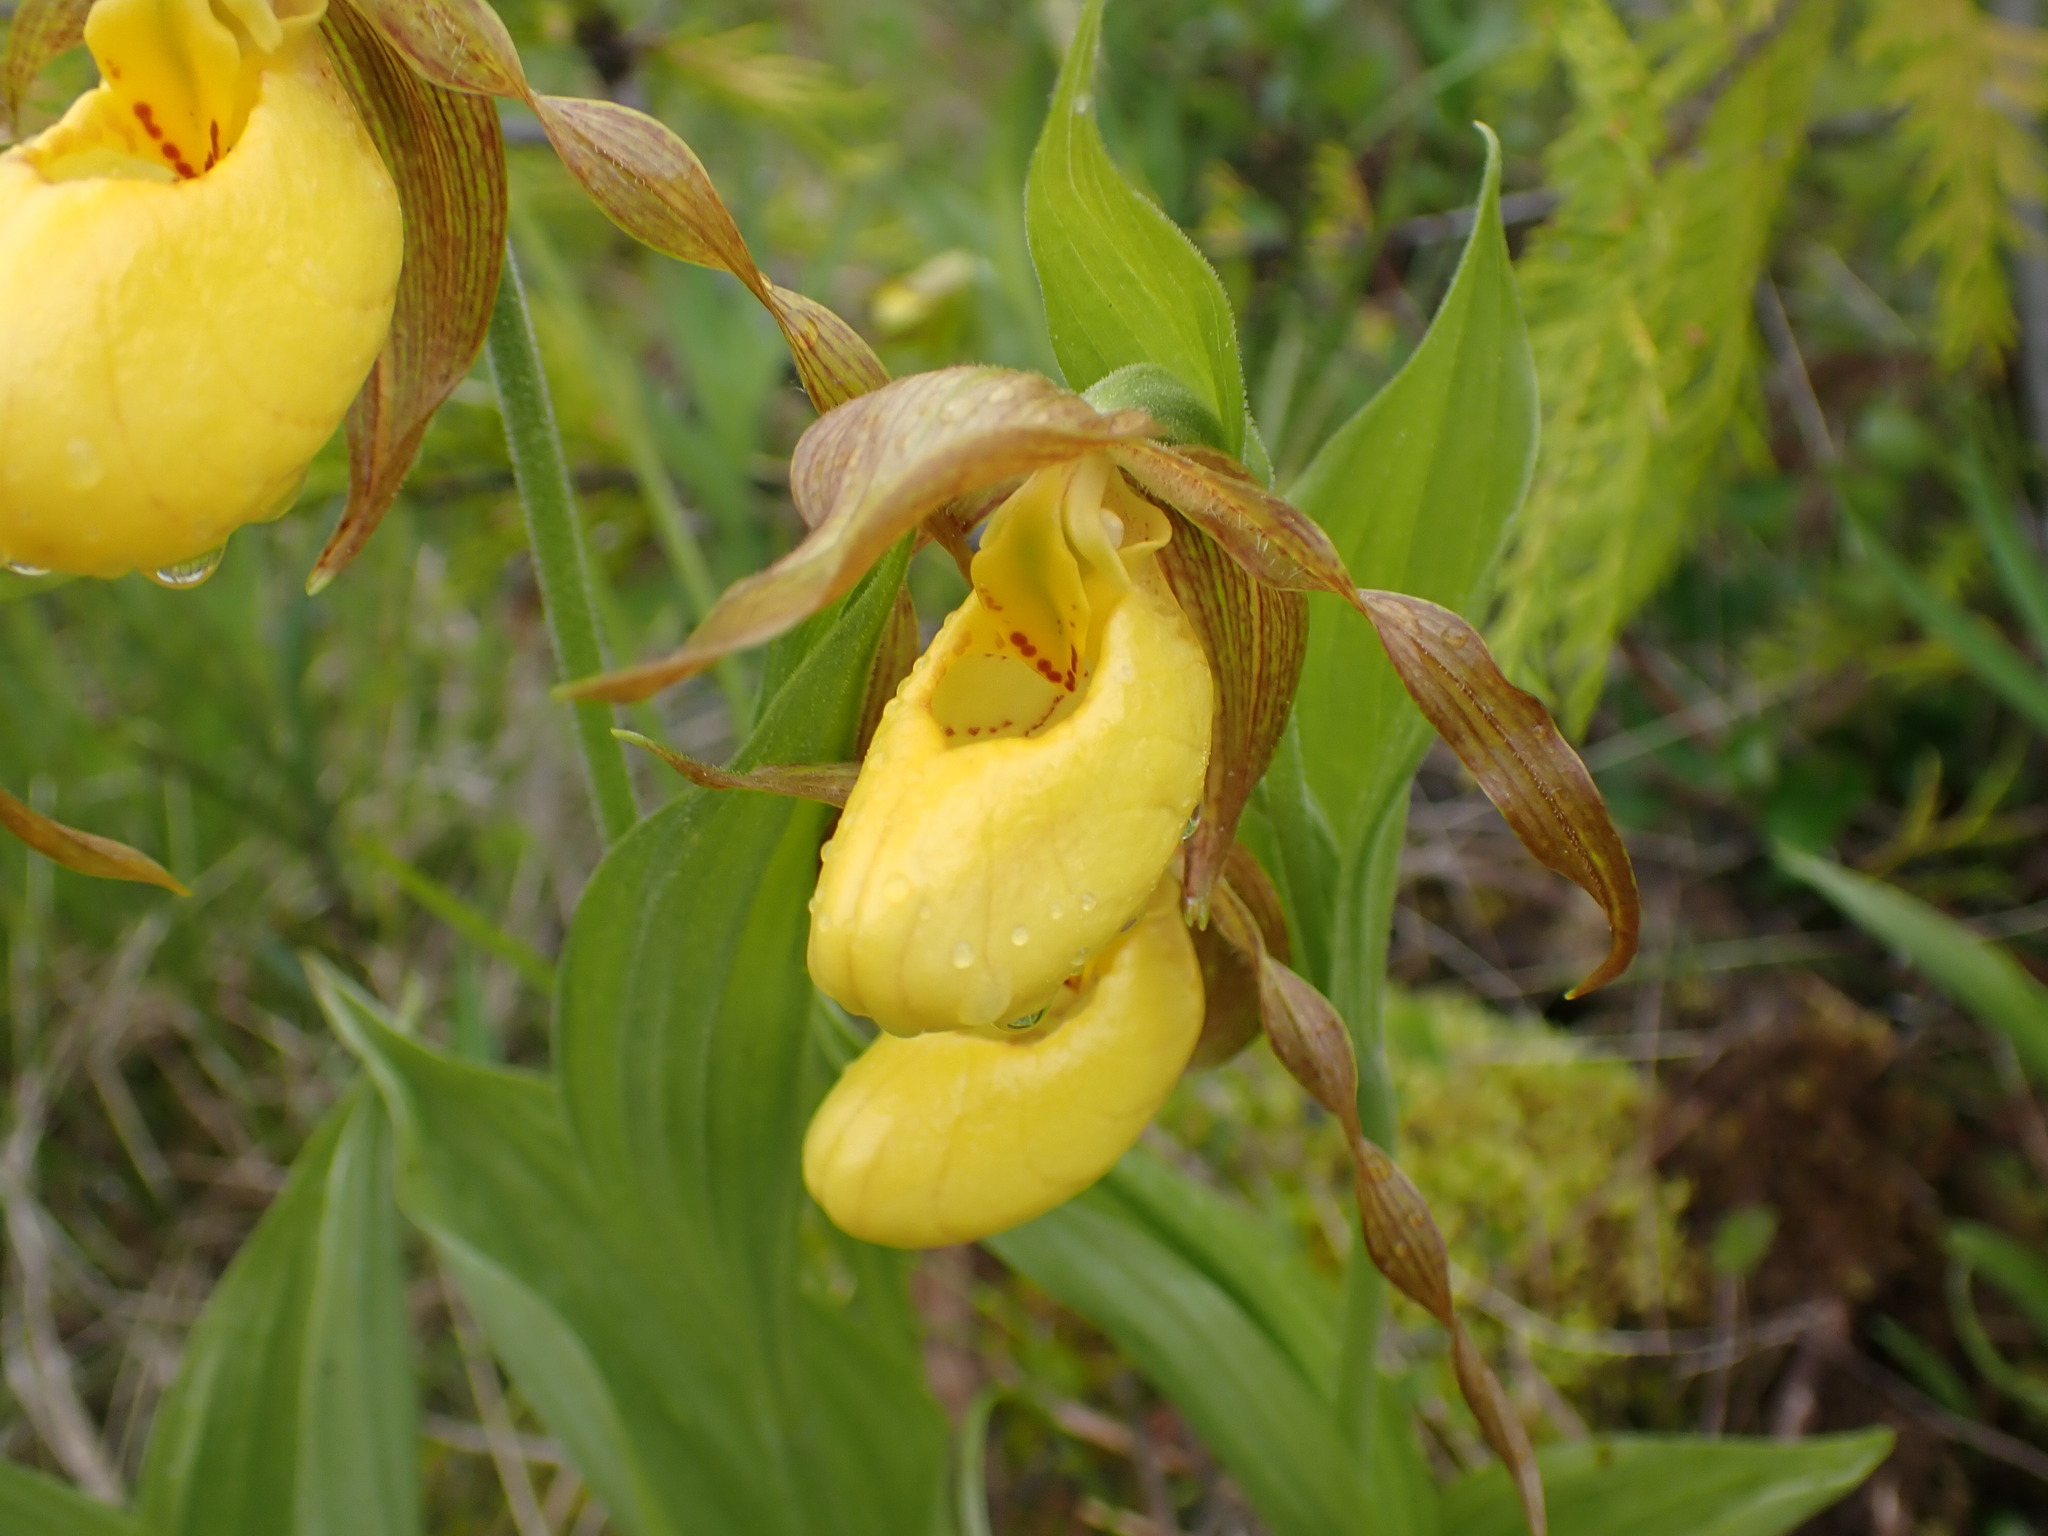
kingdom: Plantae
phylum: Tracheophyta
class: Liliopsida
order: Asparagales
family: Orchidaceae
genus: Cypripedium
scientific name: Cypripedium parviflorum
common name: American yellow lady's-slipper
